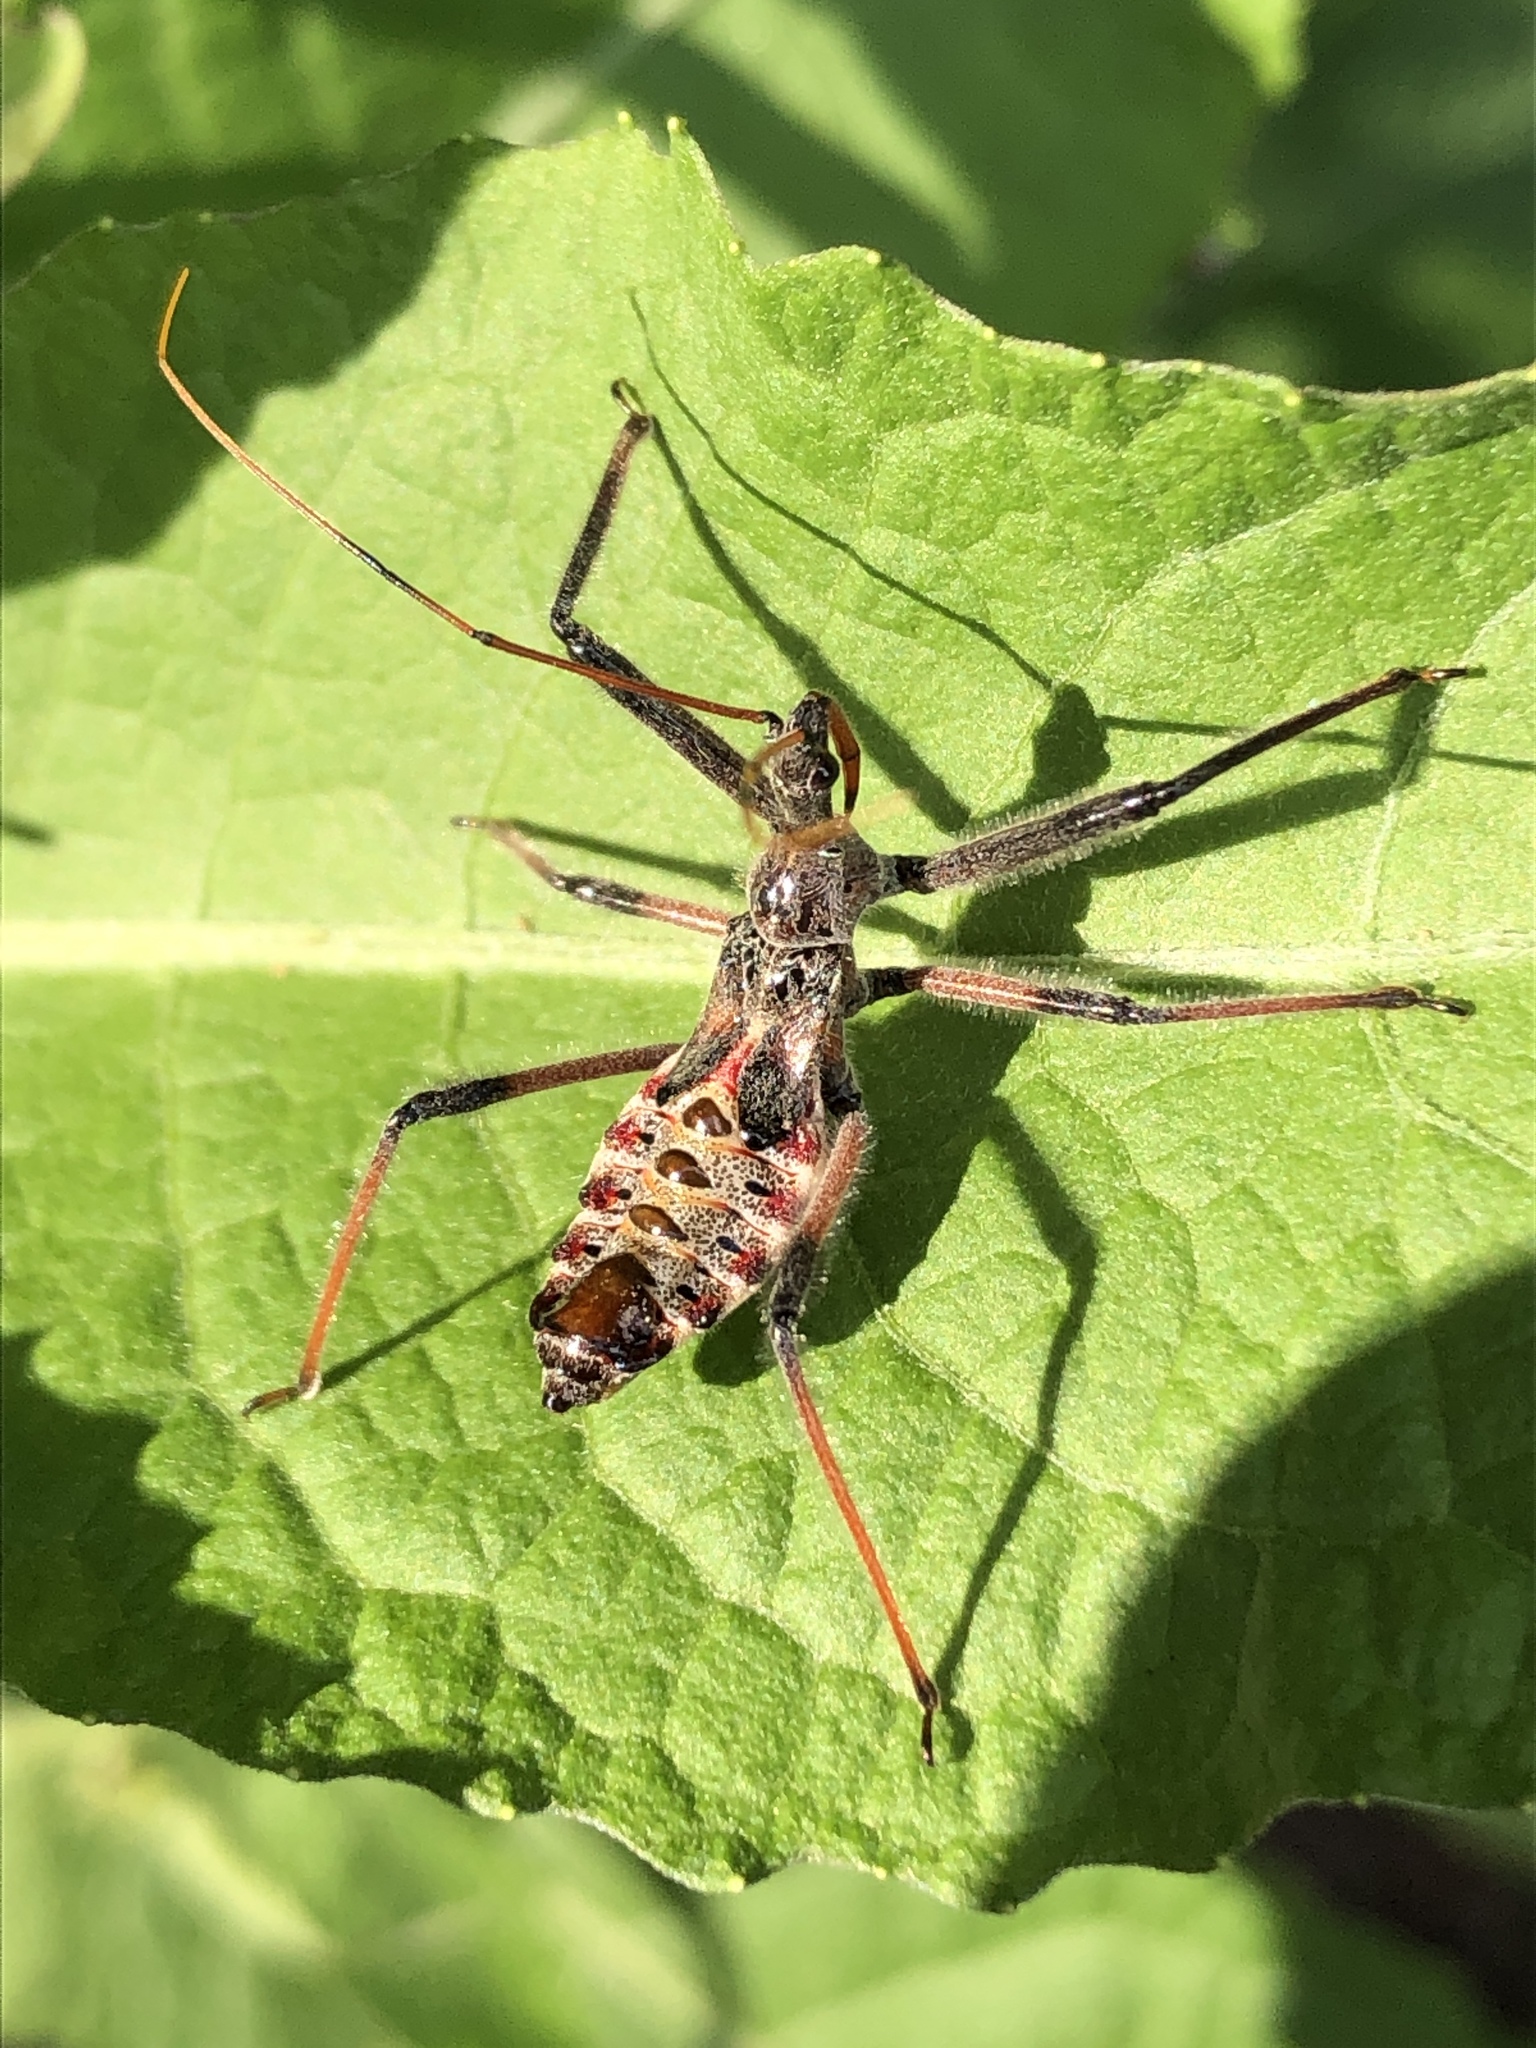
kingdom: Animalia
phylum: Arthropoda
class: Insecta
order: Hemiptera
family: Reduviidae
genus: Arilus
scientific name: Arilus cristatus
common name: North american wheel bug
